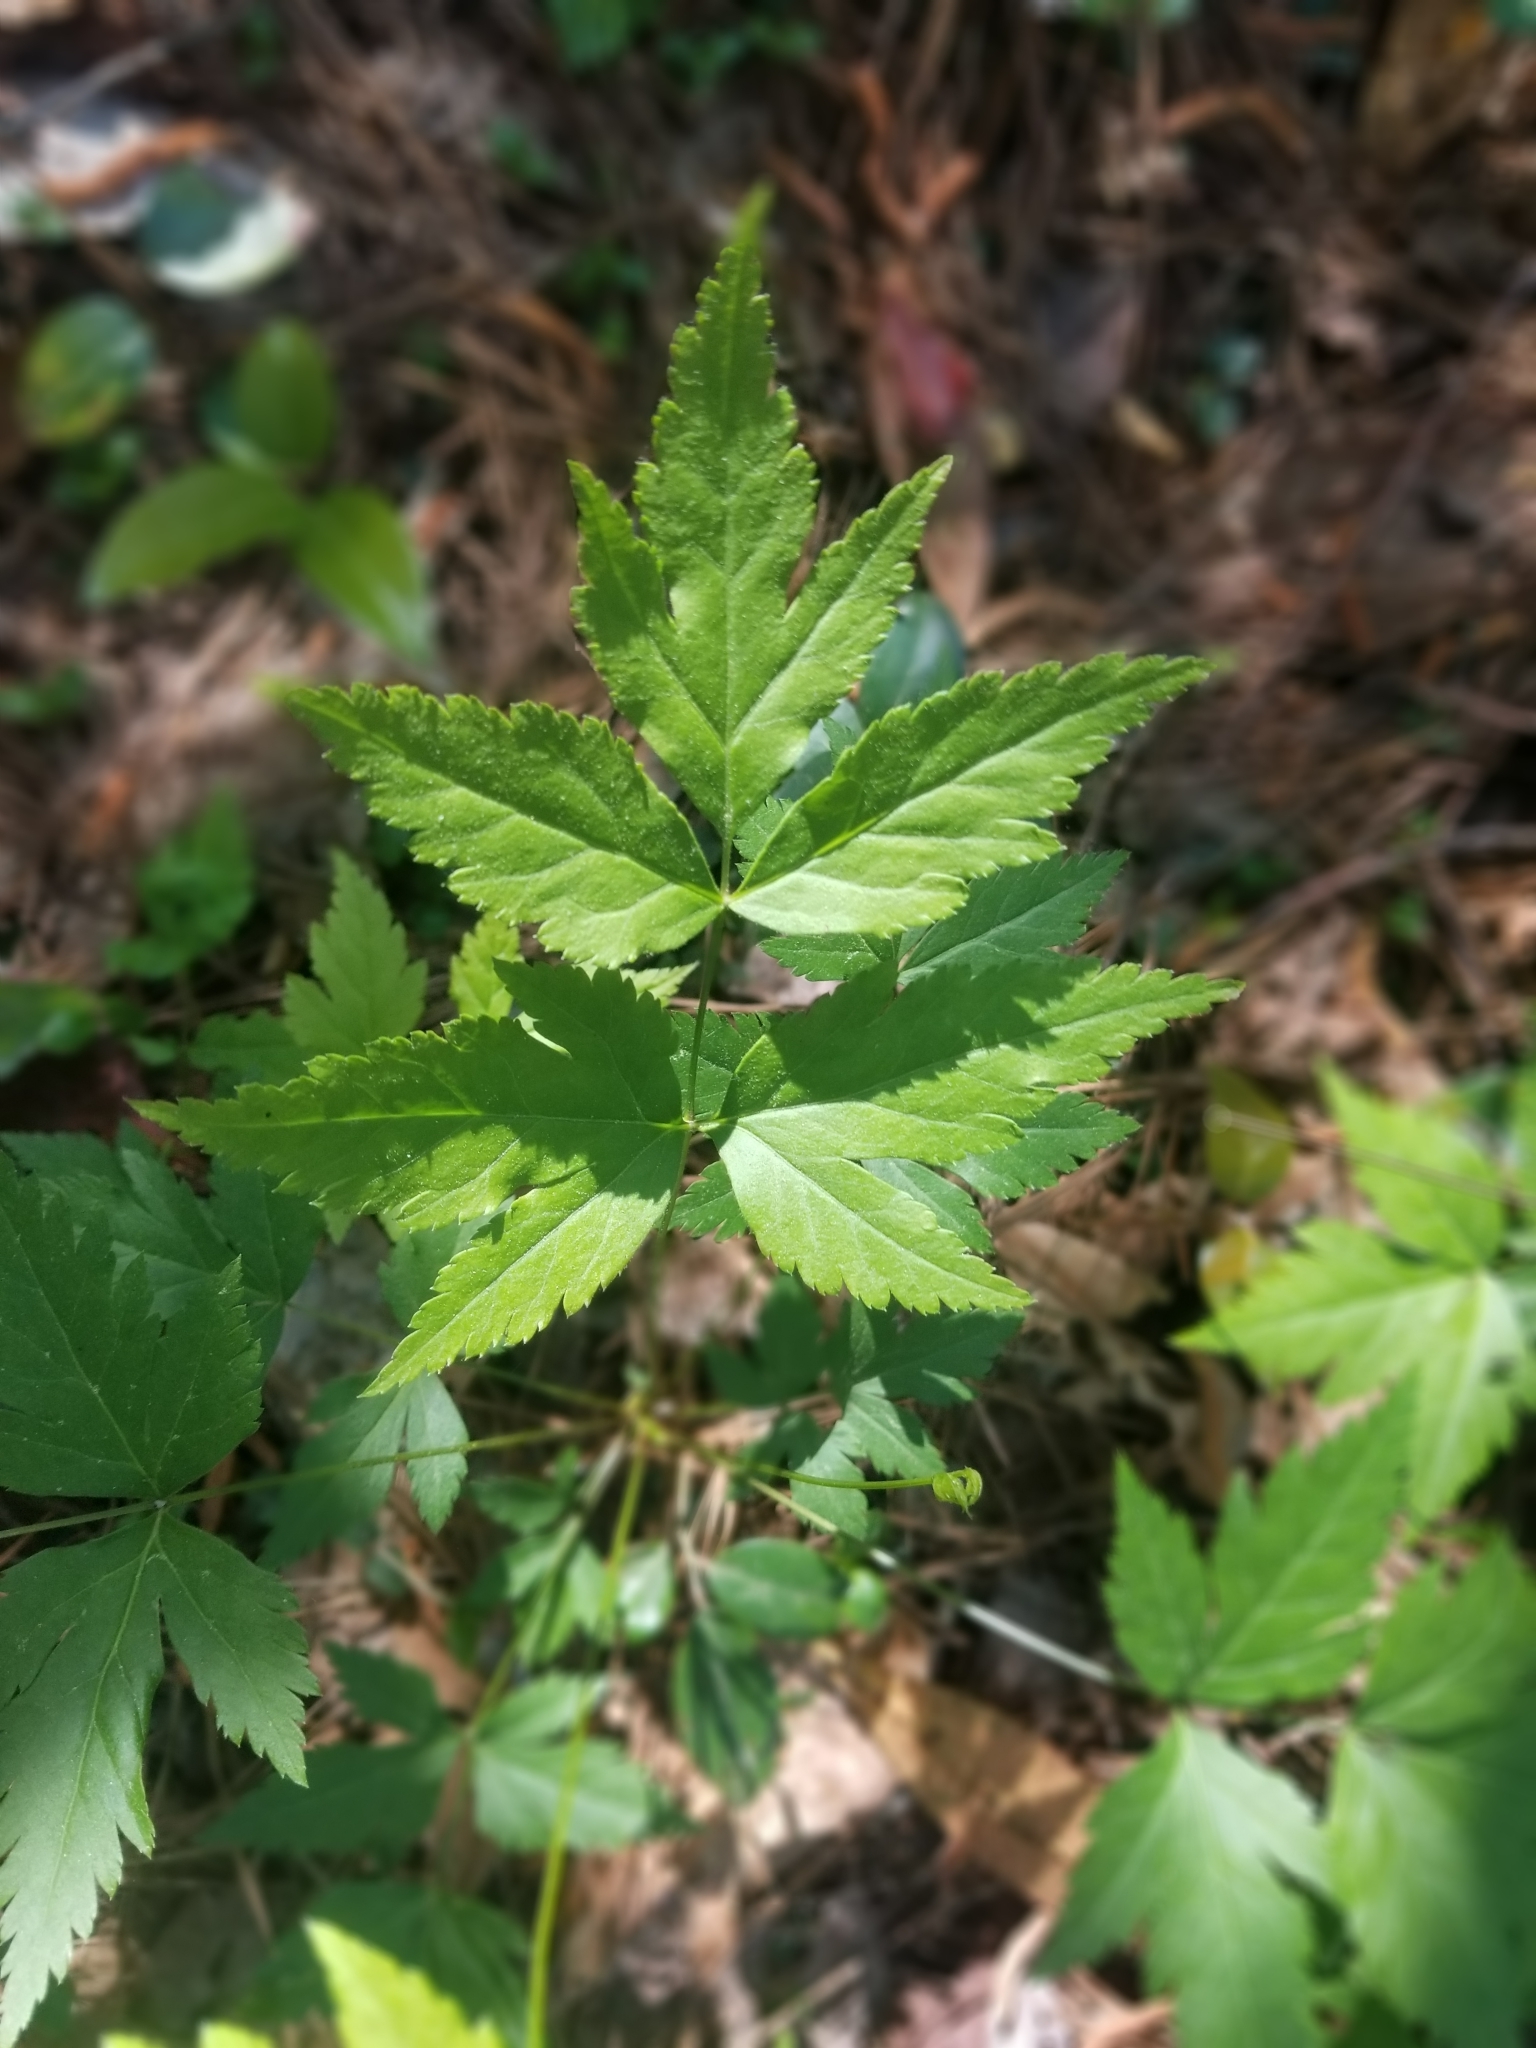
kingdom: Plantae
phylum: Tracheophyta
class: Magnoliopsida
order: Ranunculales
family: Ranunculaceae
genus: Xanthorhiza
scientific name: Xanthorhiza simplicissima
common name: Yellowroot
